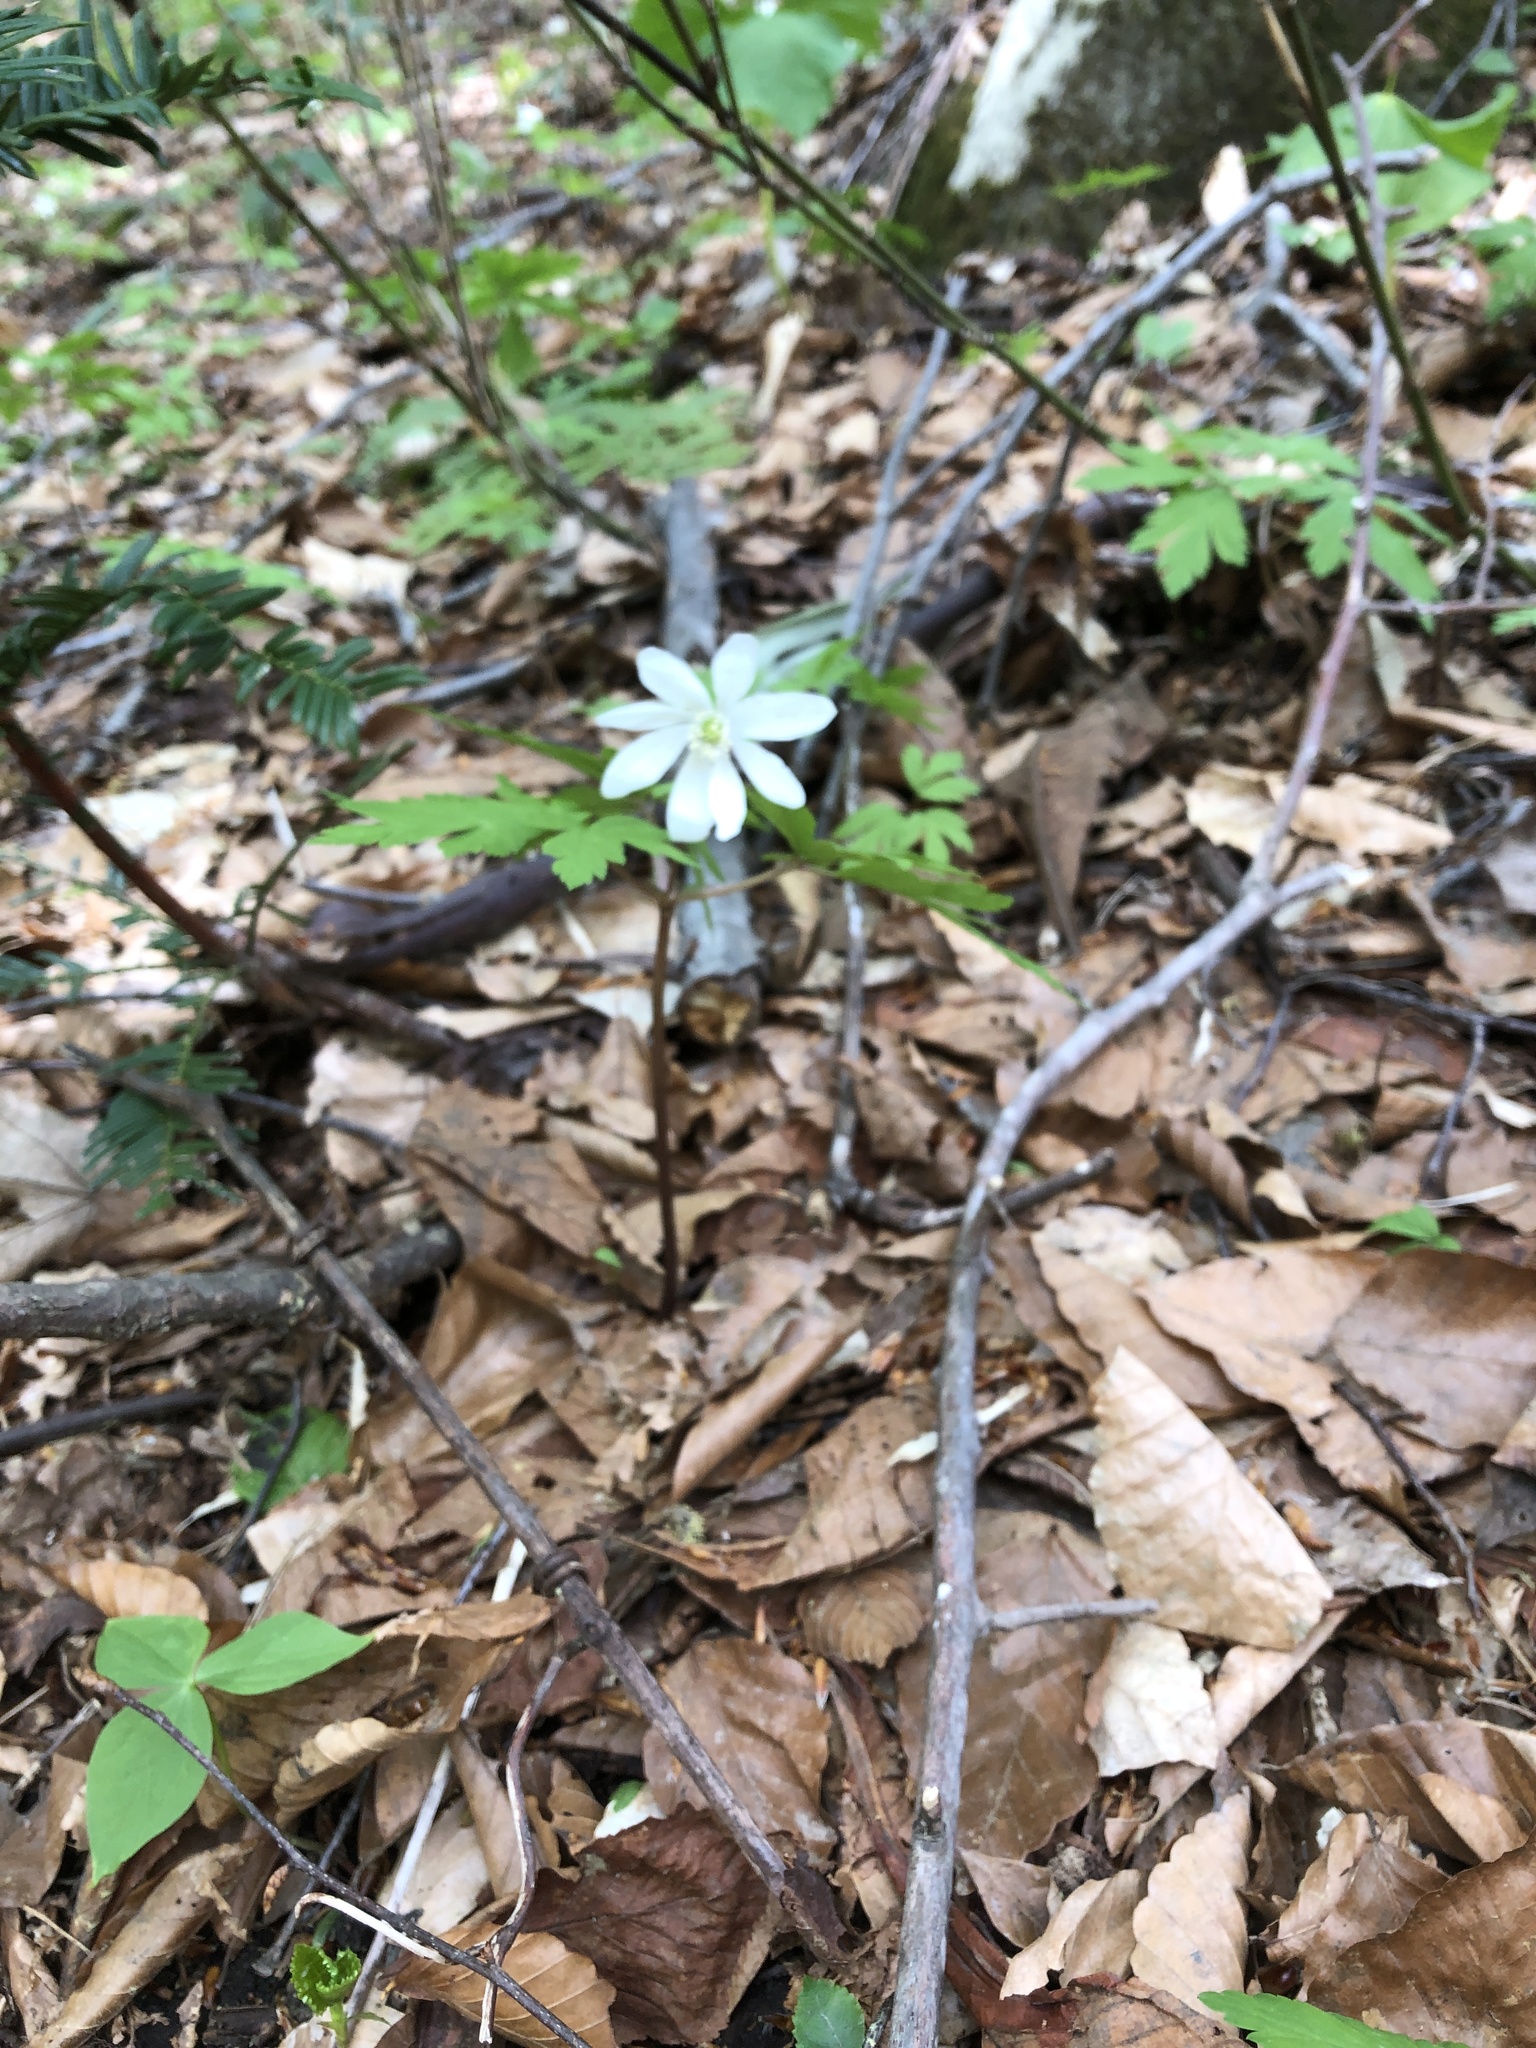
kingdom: Plantae
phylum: Tracheophyta
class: Magnoliopsida
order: Ranunculales
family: Ranunculaceae
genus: Anemone
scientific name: Anemone pseudoaltaica
